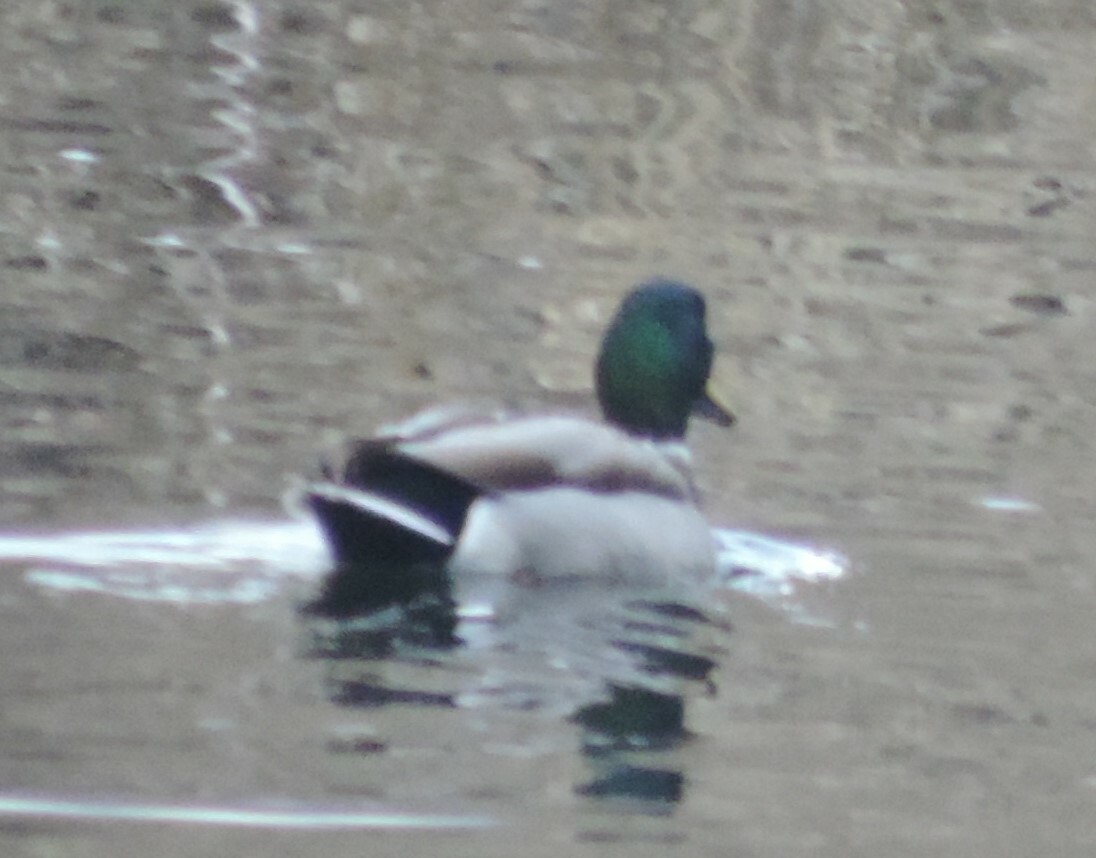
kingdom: Animalia
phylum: Chordata
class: Aves
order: Anseriformes
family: Anatidae
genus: Anas
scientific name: Anas platyrhynchos
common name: Mallard
